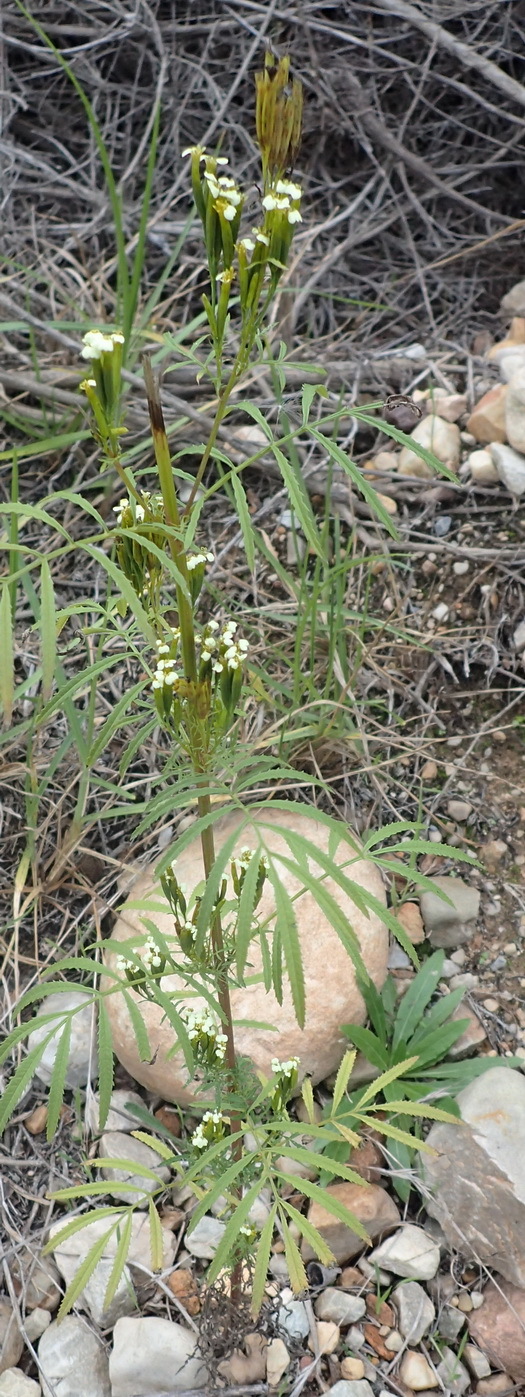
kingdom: Plantae
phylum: Tracheophyta
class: Magnoliopsida
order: Asterales
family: Asteraceae
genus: Tagetes
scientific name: Tagetes minuta
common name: Muster john henry
